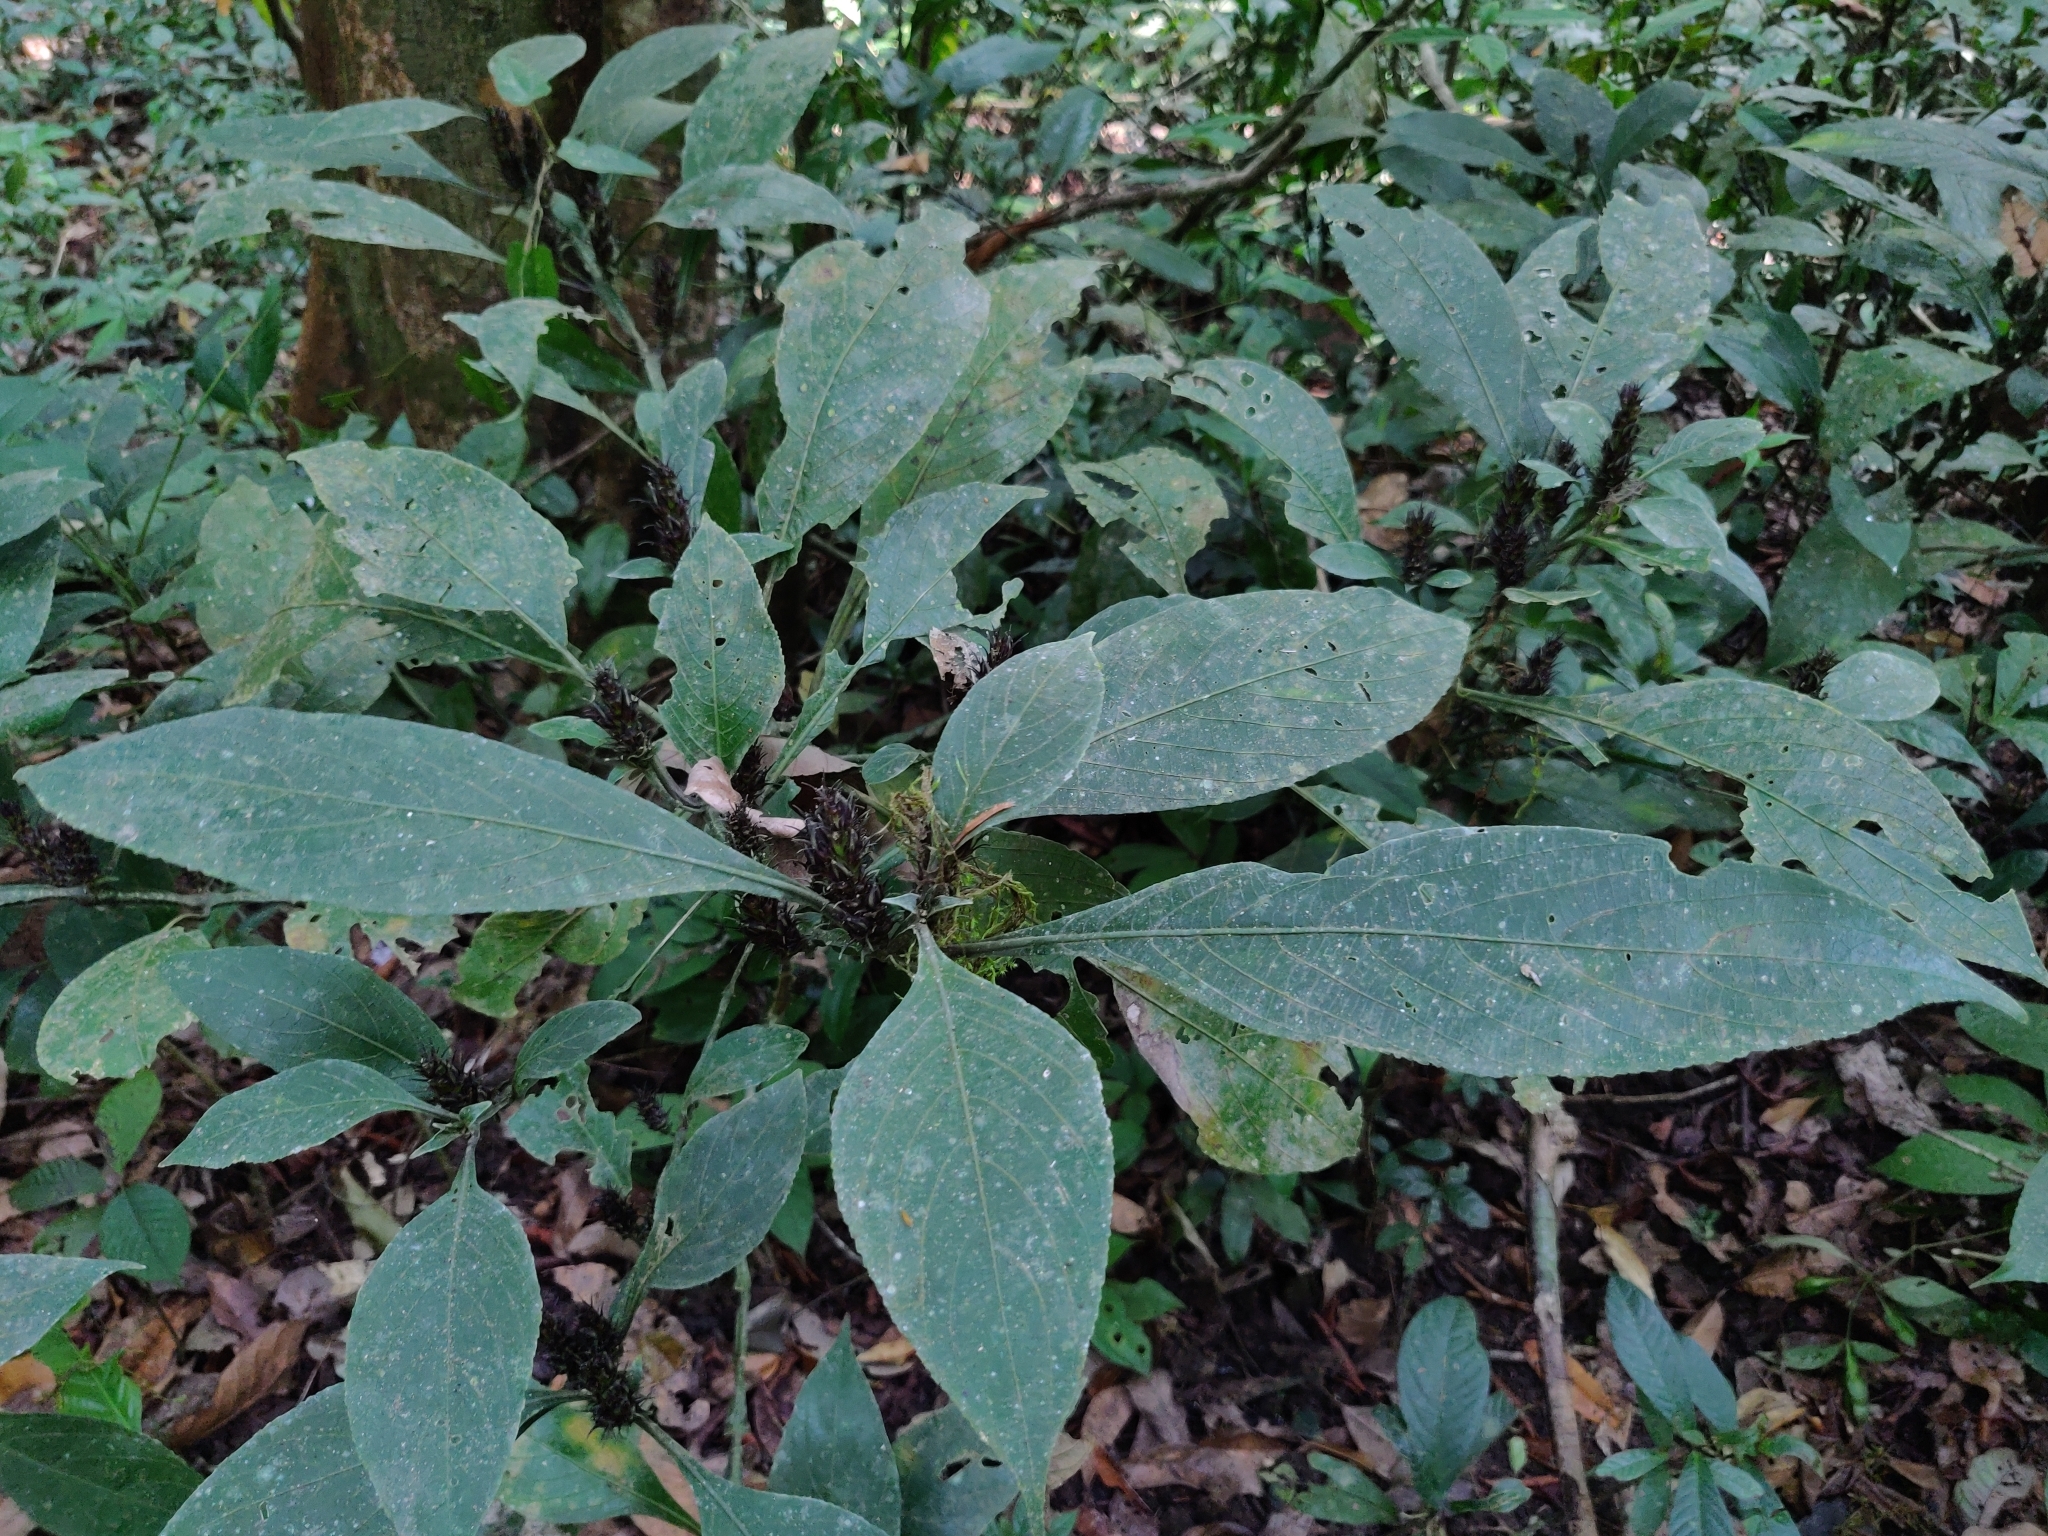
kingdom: Plantae
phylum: Tracheophyta
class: Magnoliopsida
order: Lamiales
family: Acanthaceae
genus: Strobilanthes
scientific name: Strobilanthes barbata
